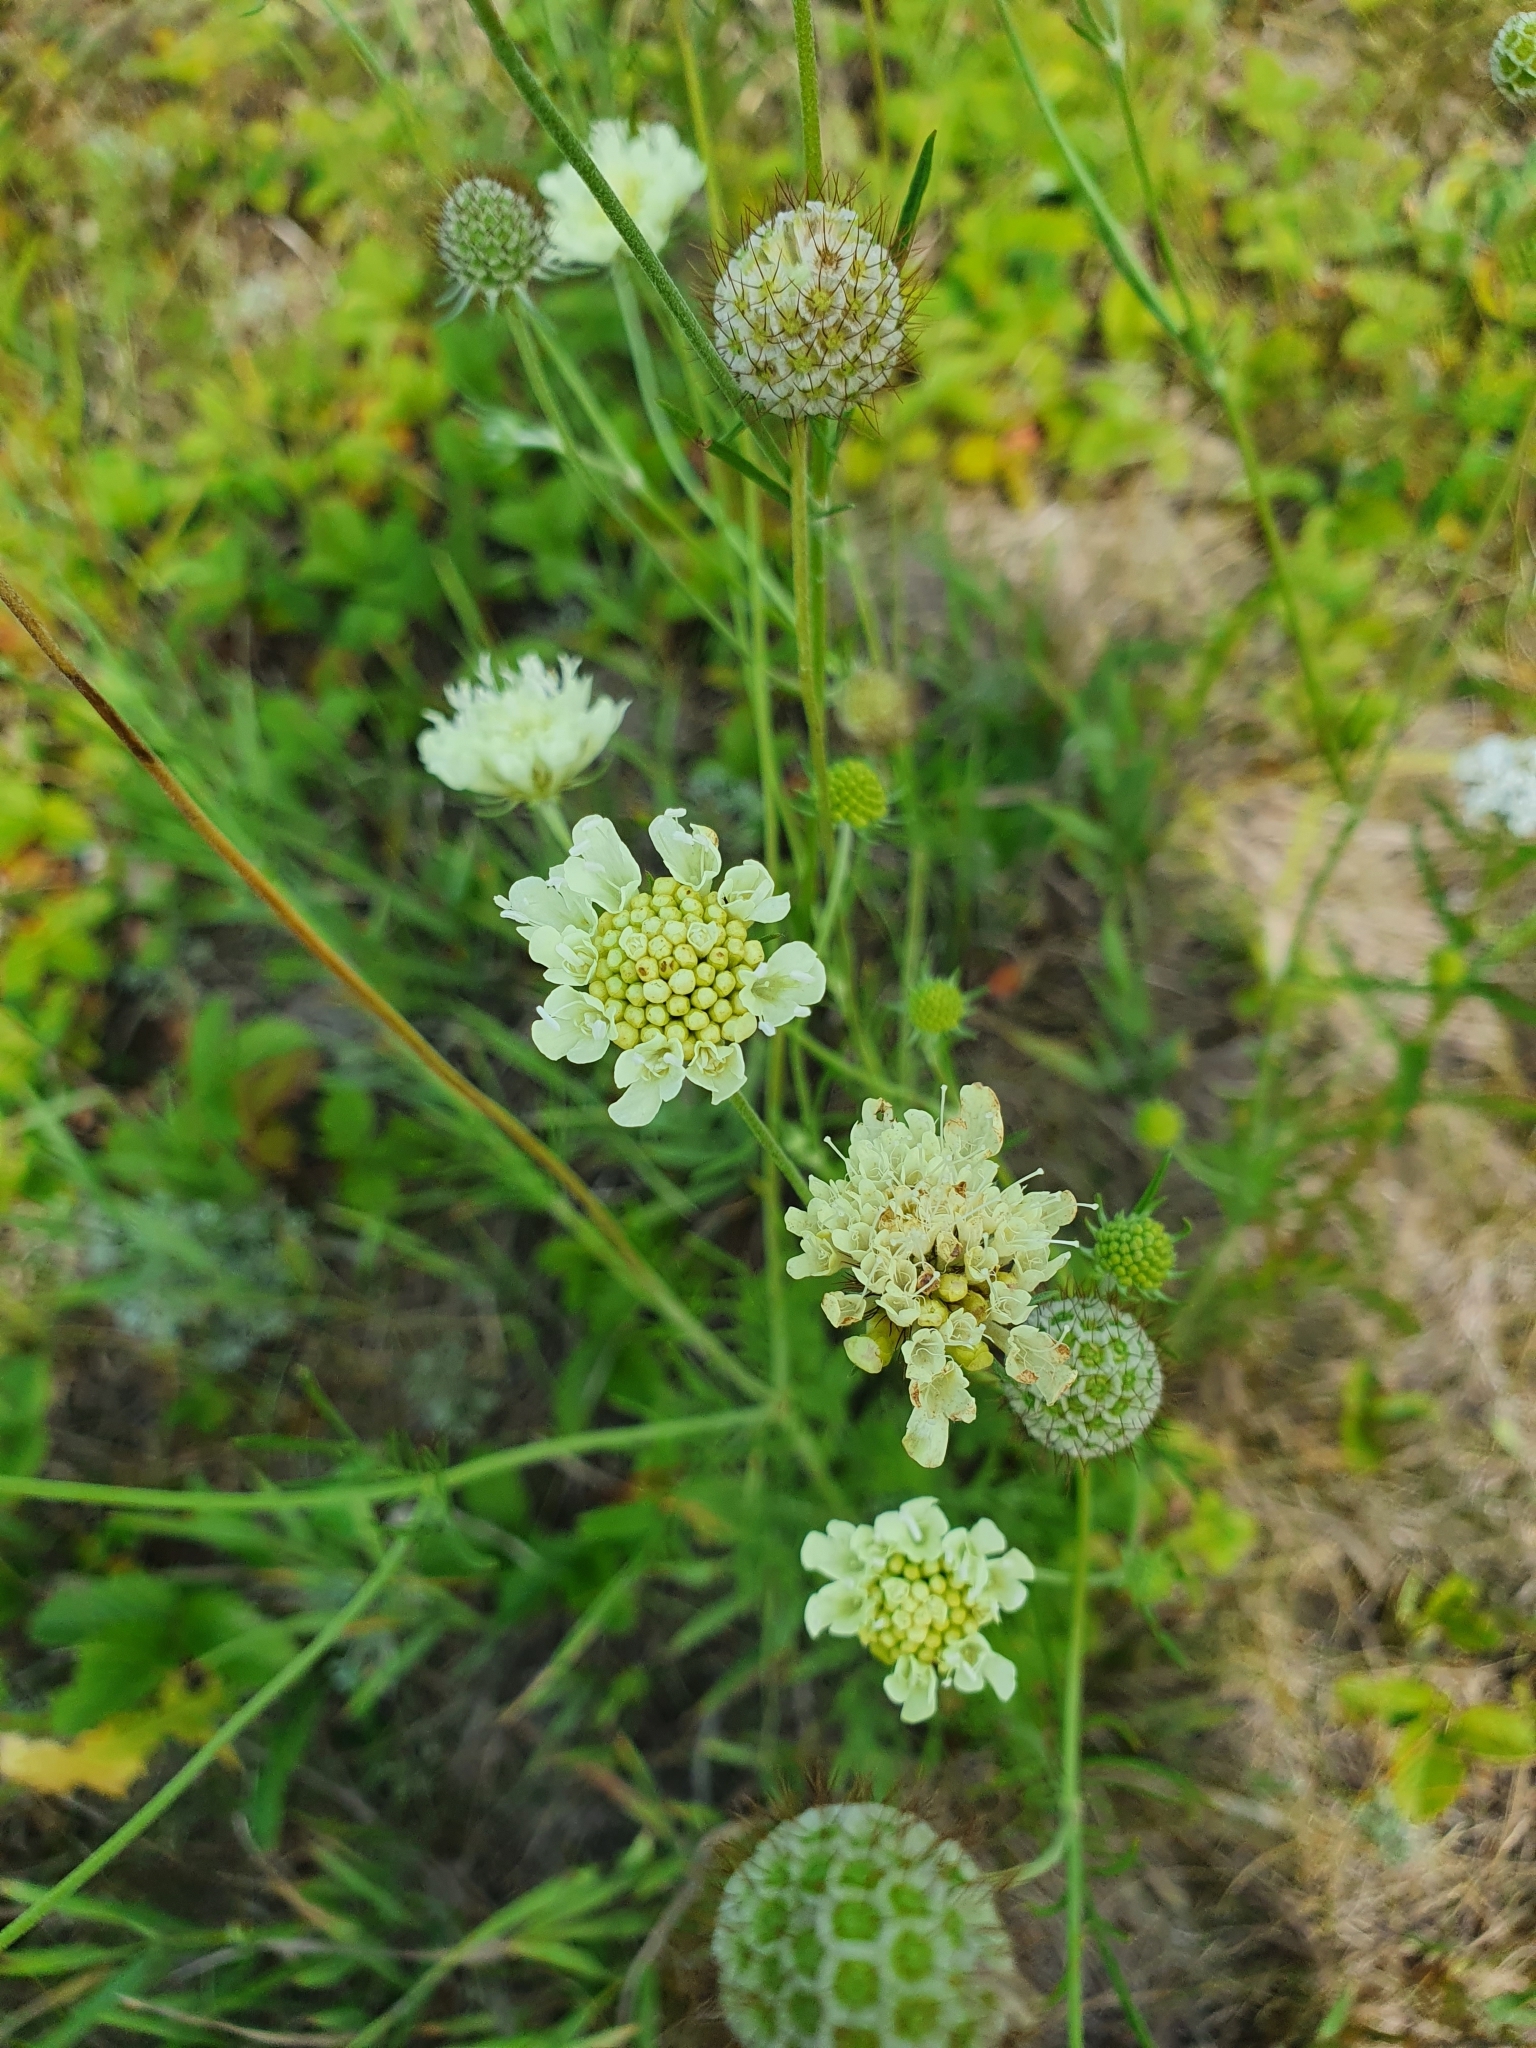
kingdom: Plantae
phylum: Tracheophyta
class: Magnoliopsida
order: Dipsacales
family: Caprifoliaceae
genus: Scabiosa
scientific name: Scabiosa ochroleuca
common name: Cream pincushions
